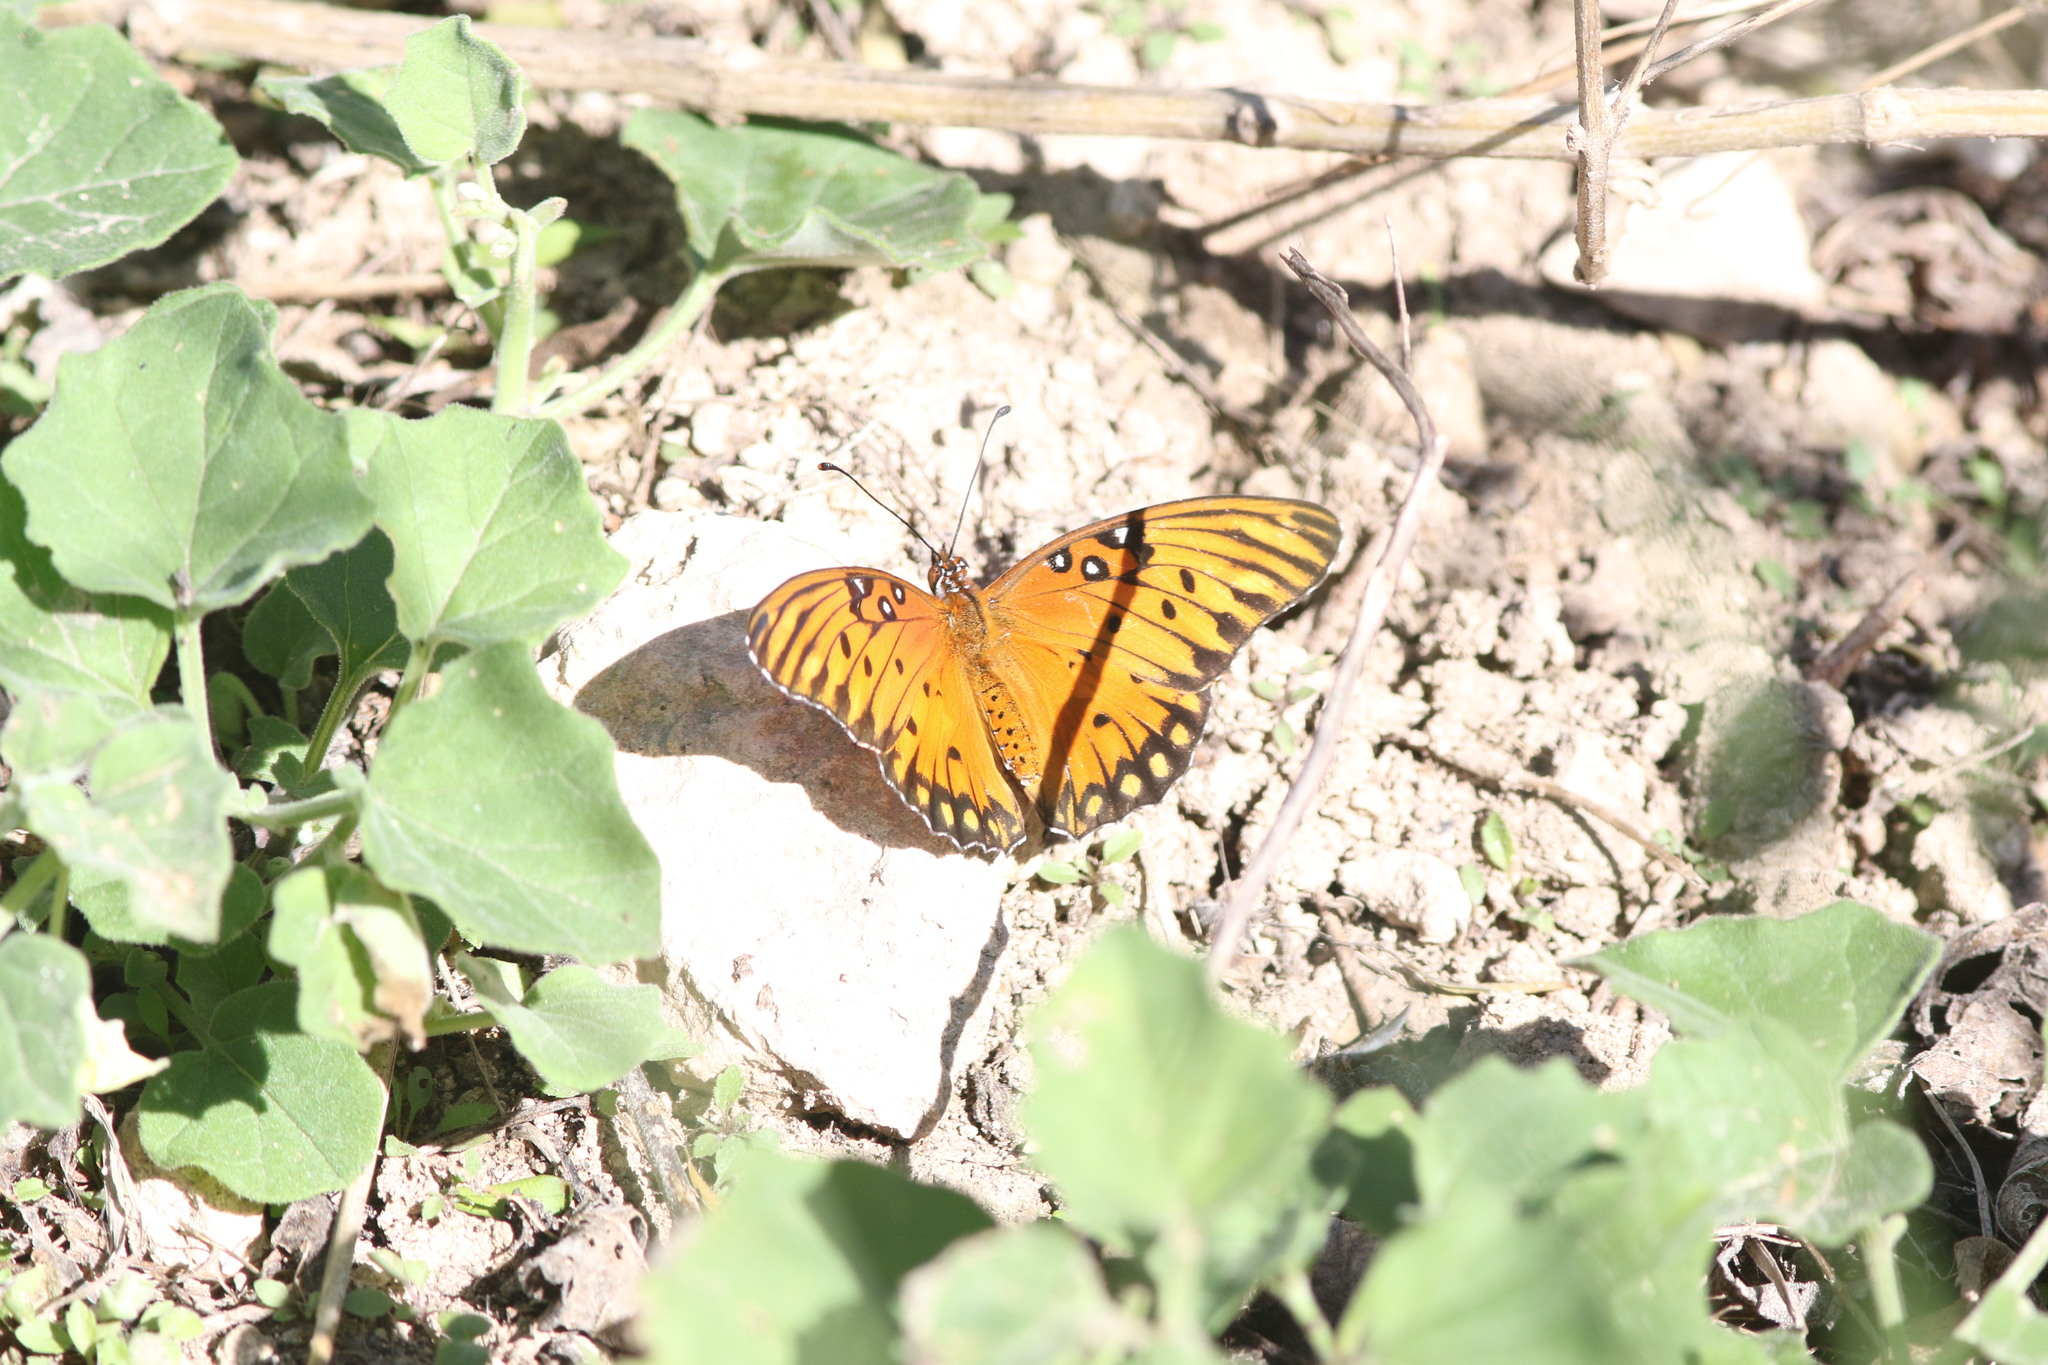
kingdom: Animalia
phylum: Arthropoda
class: Insecta
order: Lepidoptera
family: Nymphalidae
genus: Dione
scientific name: Dione vanillae
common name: Gulf fritillary
